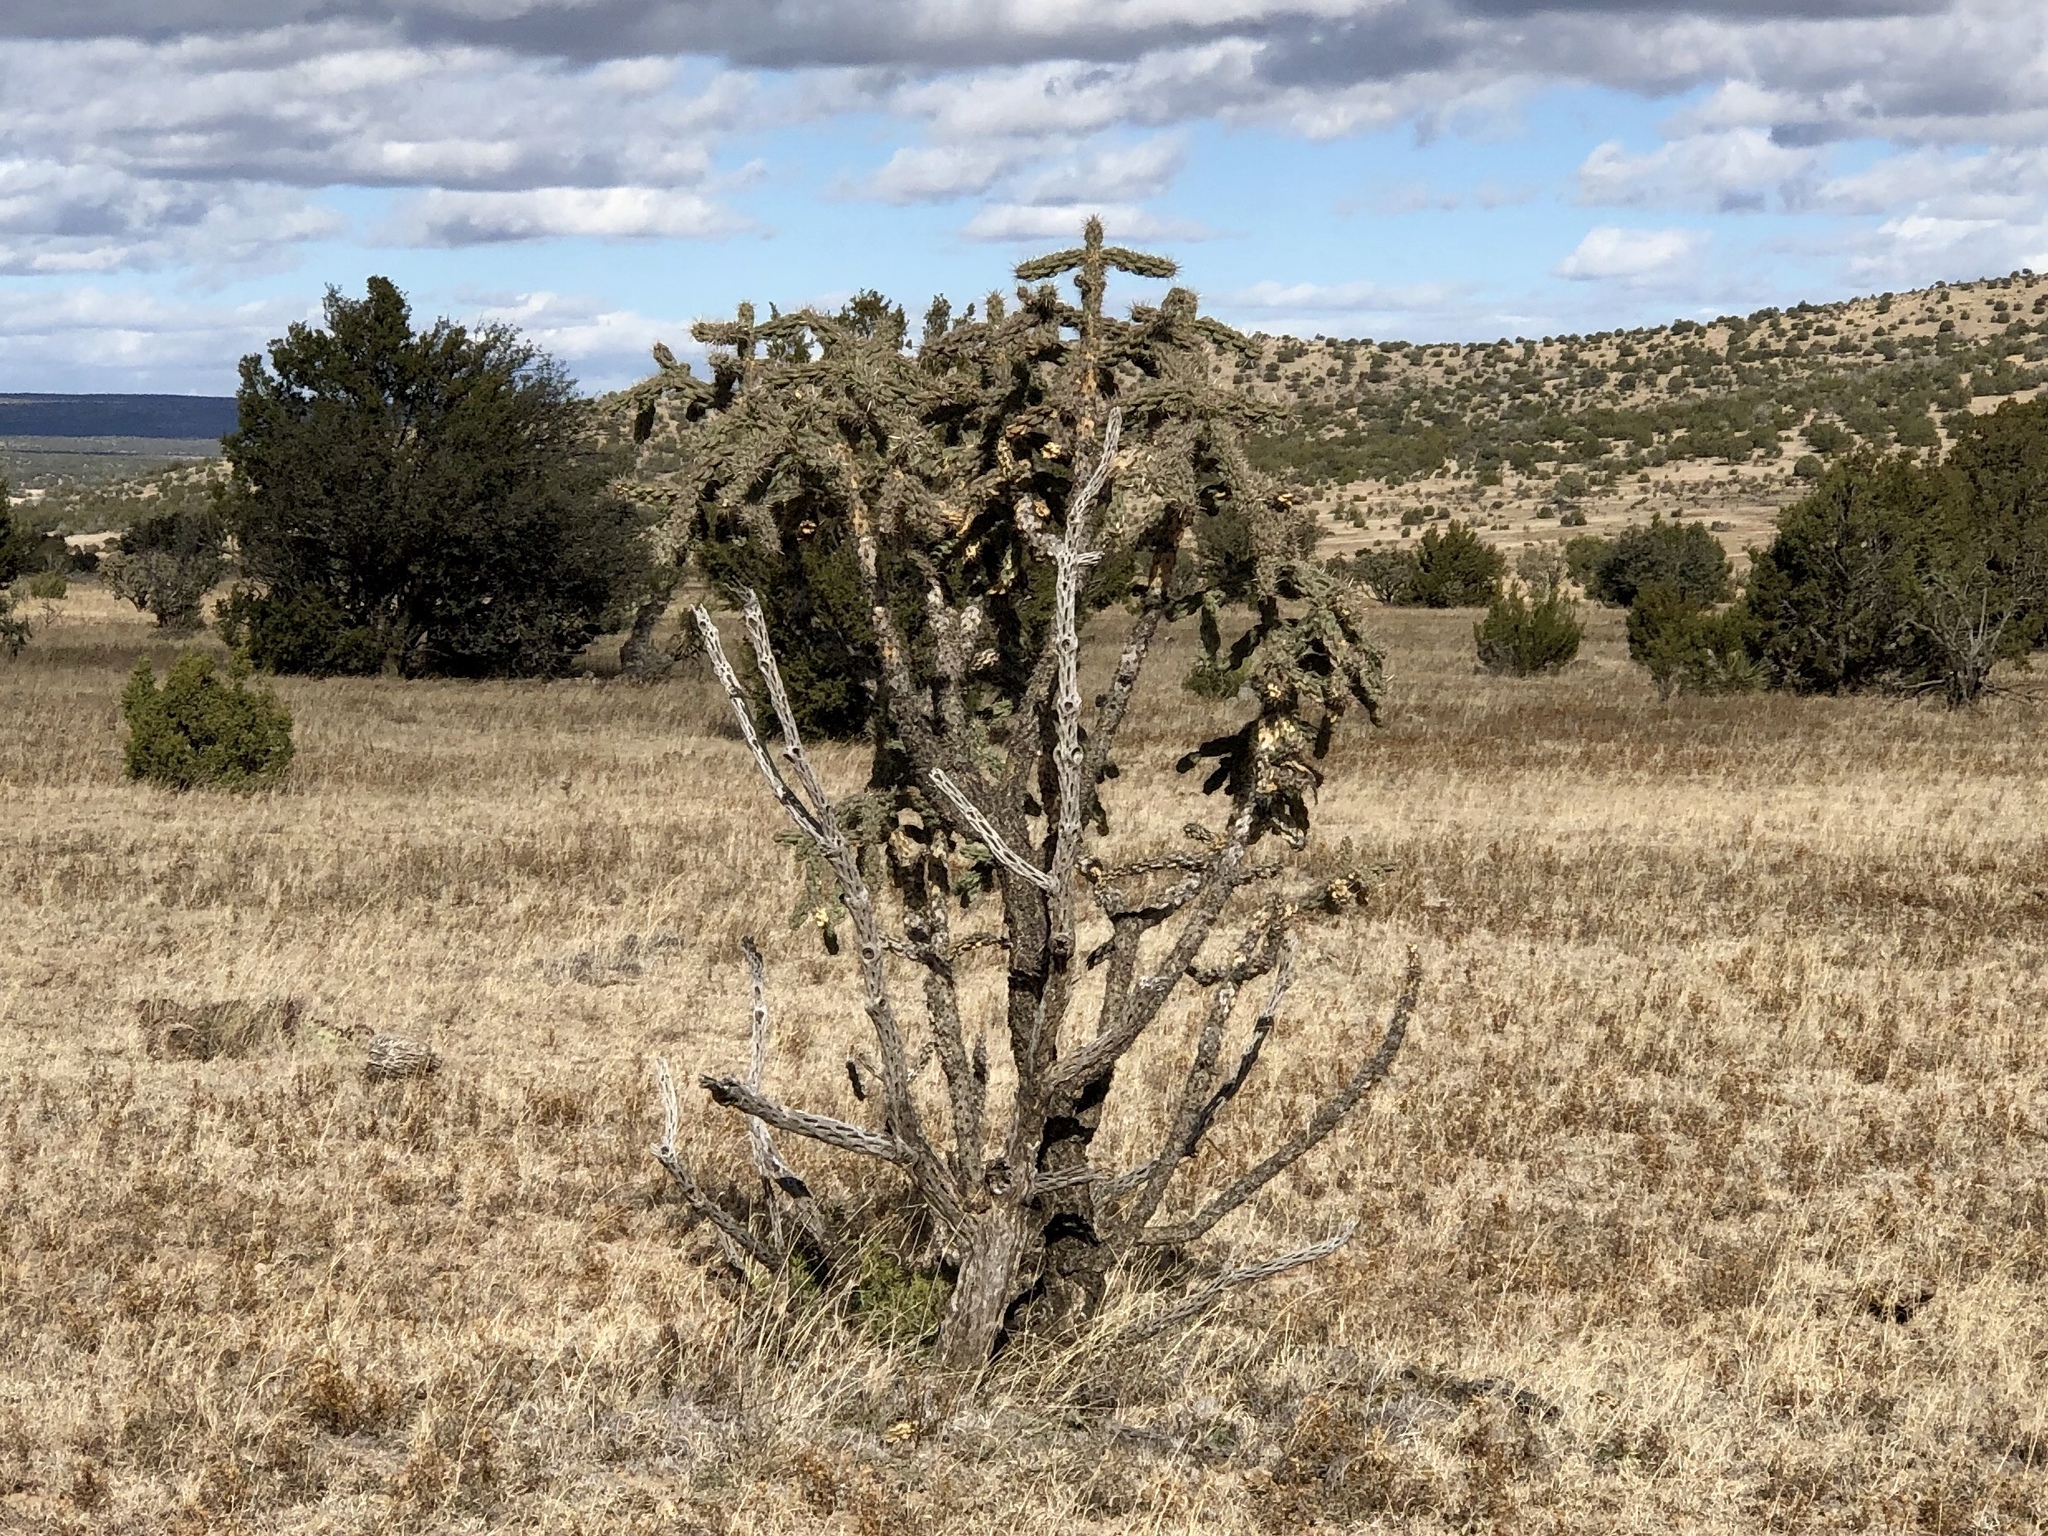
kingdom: Plantae
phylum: Tracheophyta
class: Magnoliopsida
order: Caryophyllales
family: Cactaceae
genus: Cylindropuntia
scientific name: Cylindropuntia imbricata
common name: Candelabrum cactus
